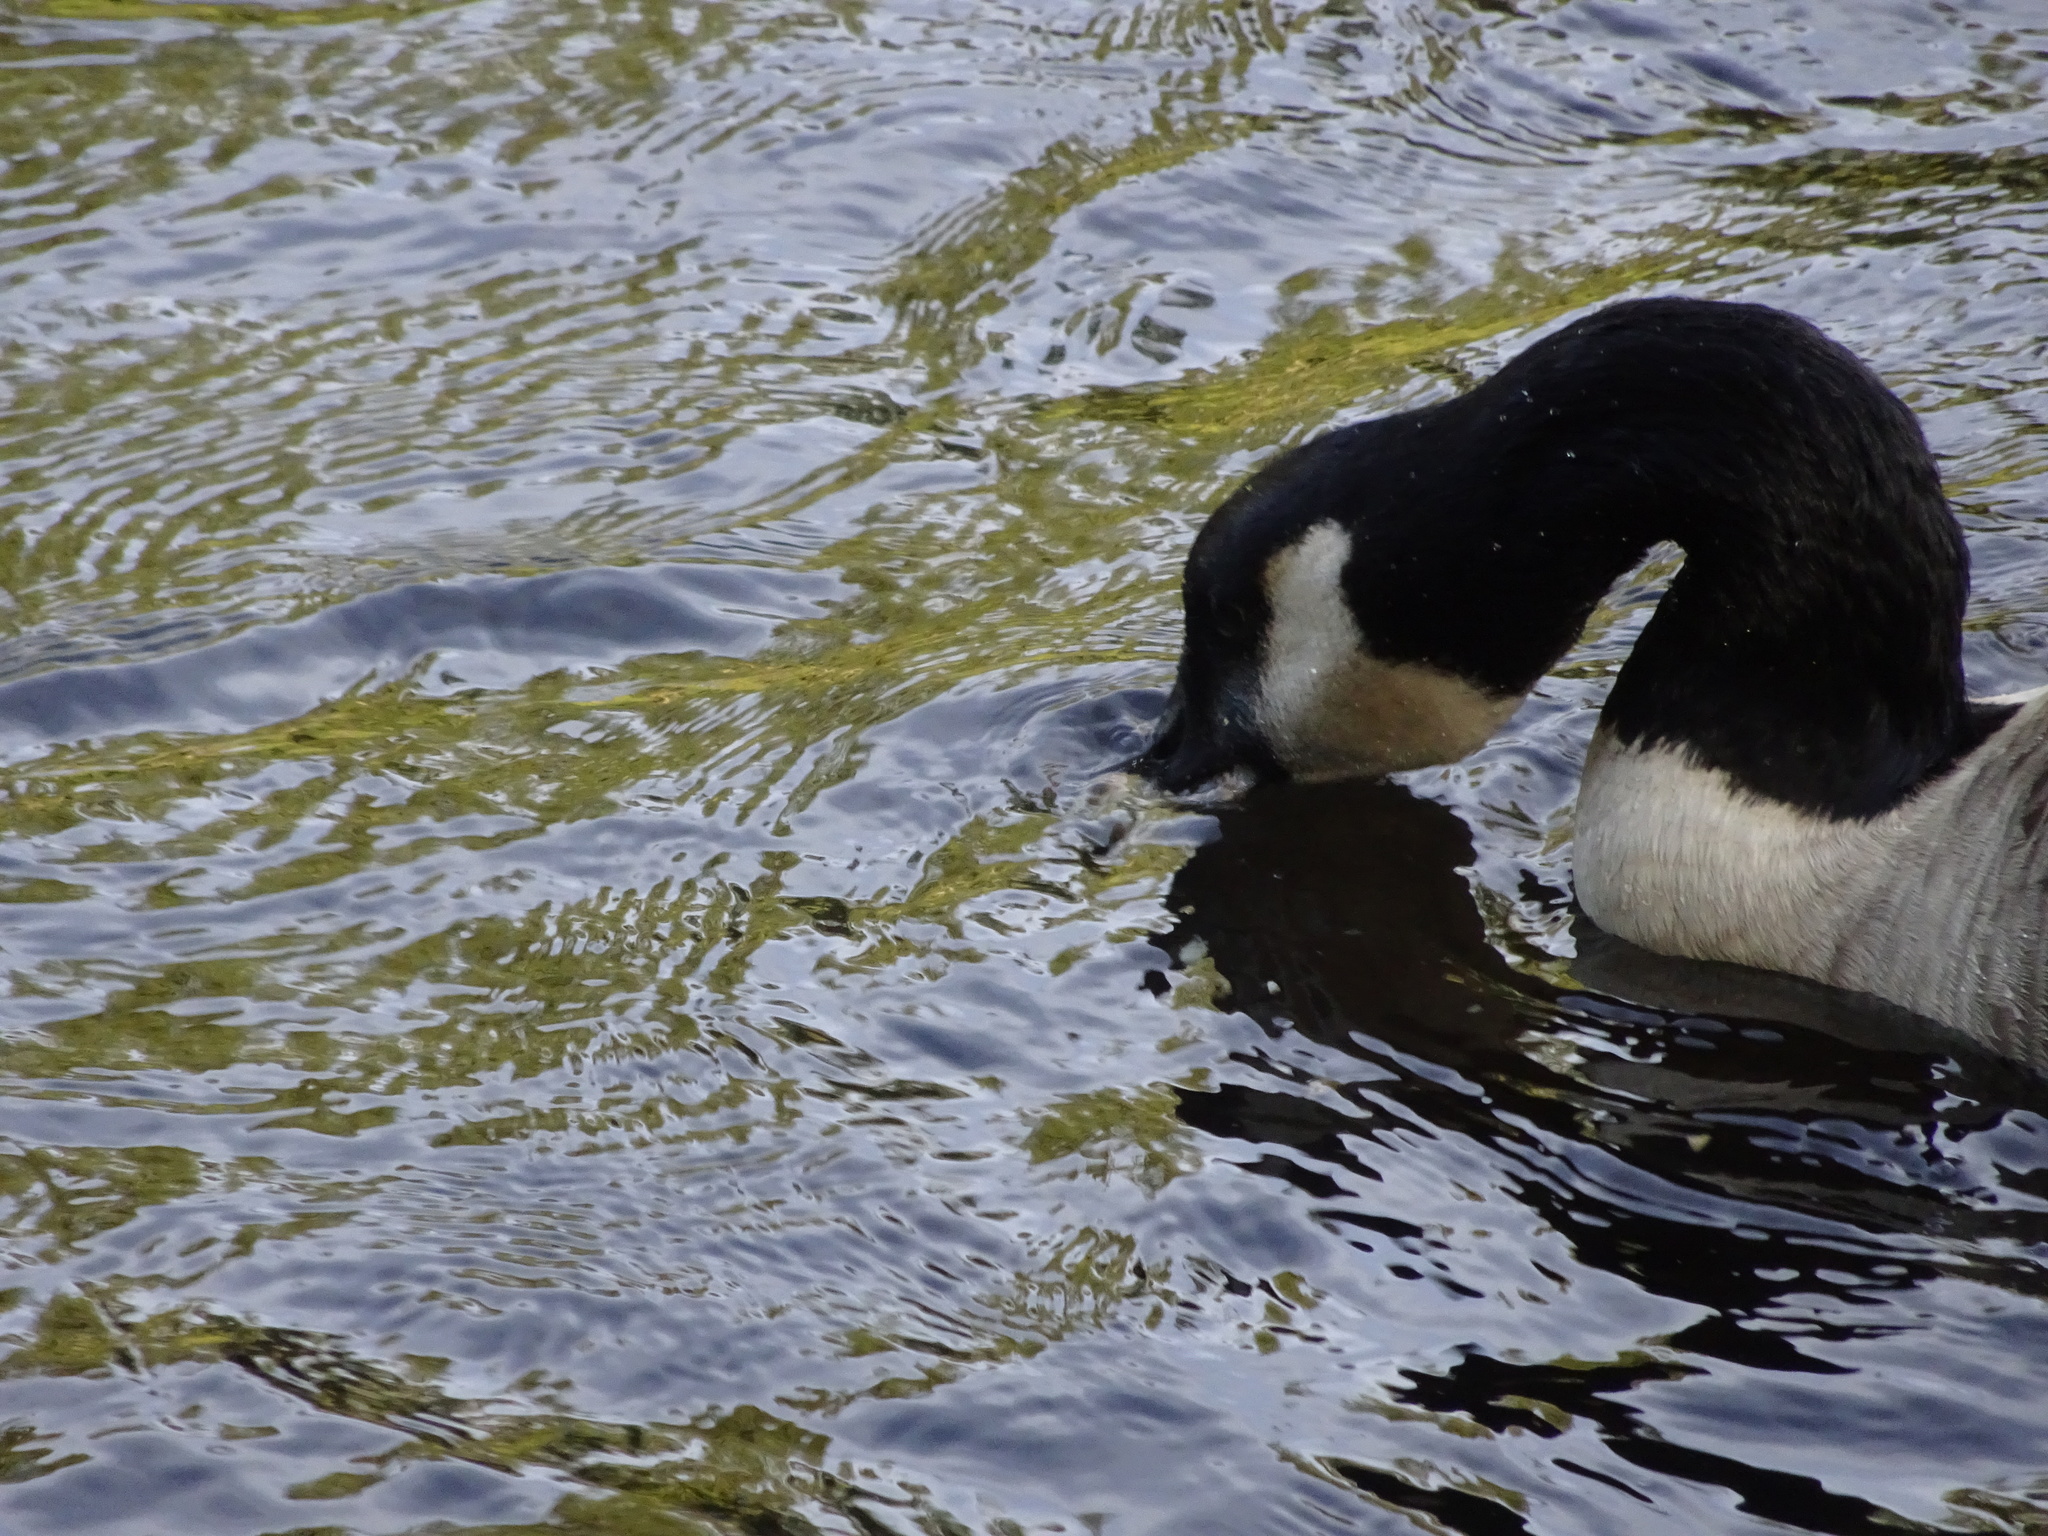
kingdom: Animalia
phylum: Chordata
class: Aves
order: Anseriformes
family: Anatidae
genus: Branta
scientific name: Branta canadensis
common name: Canada goose
